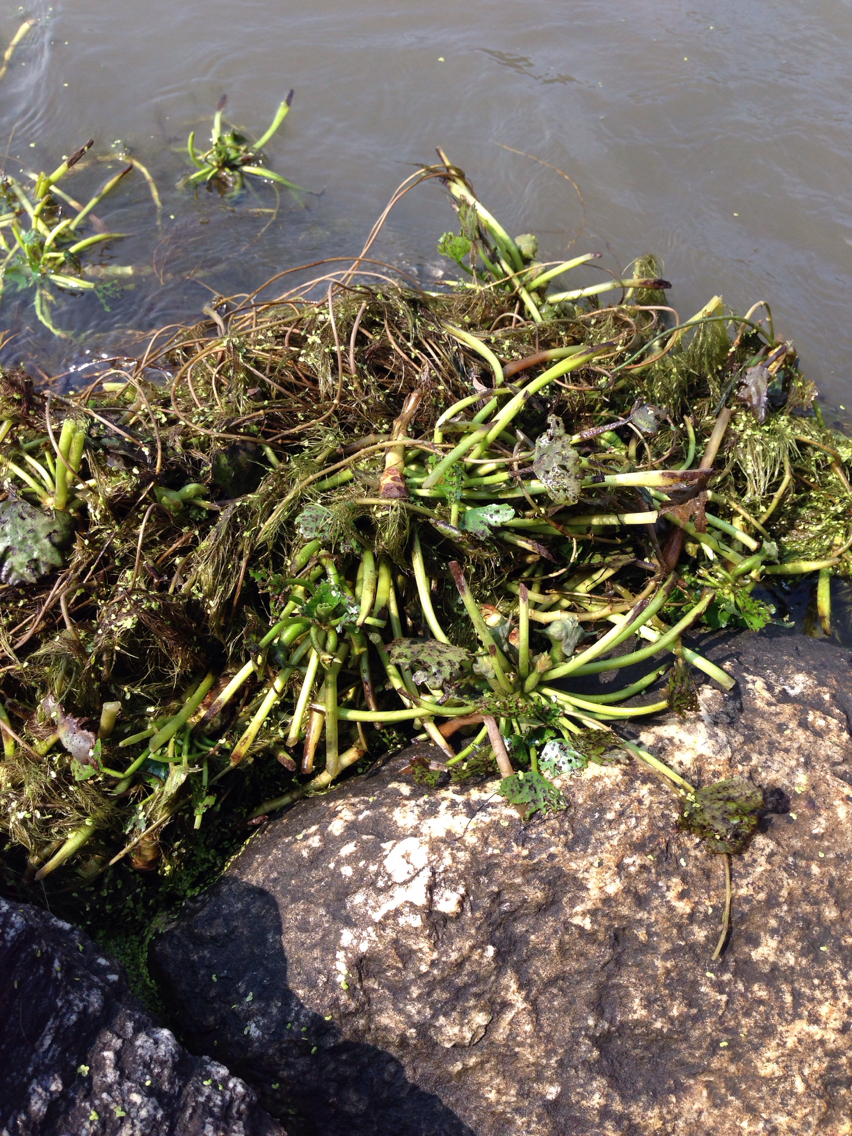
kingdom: Plantae
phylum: Tracheophyta
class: Magnoliopsida
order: Myrtales
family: Lythraceae
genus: Trapa
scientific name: Trapa natans
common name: Water chestnut
